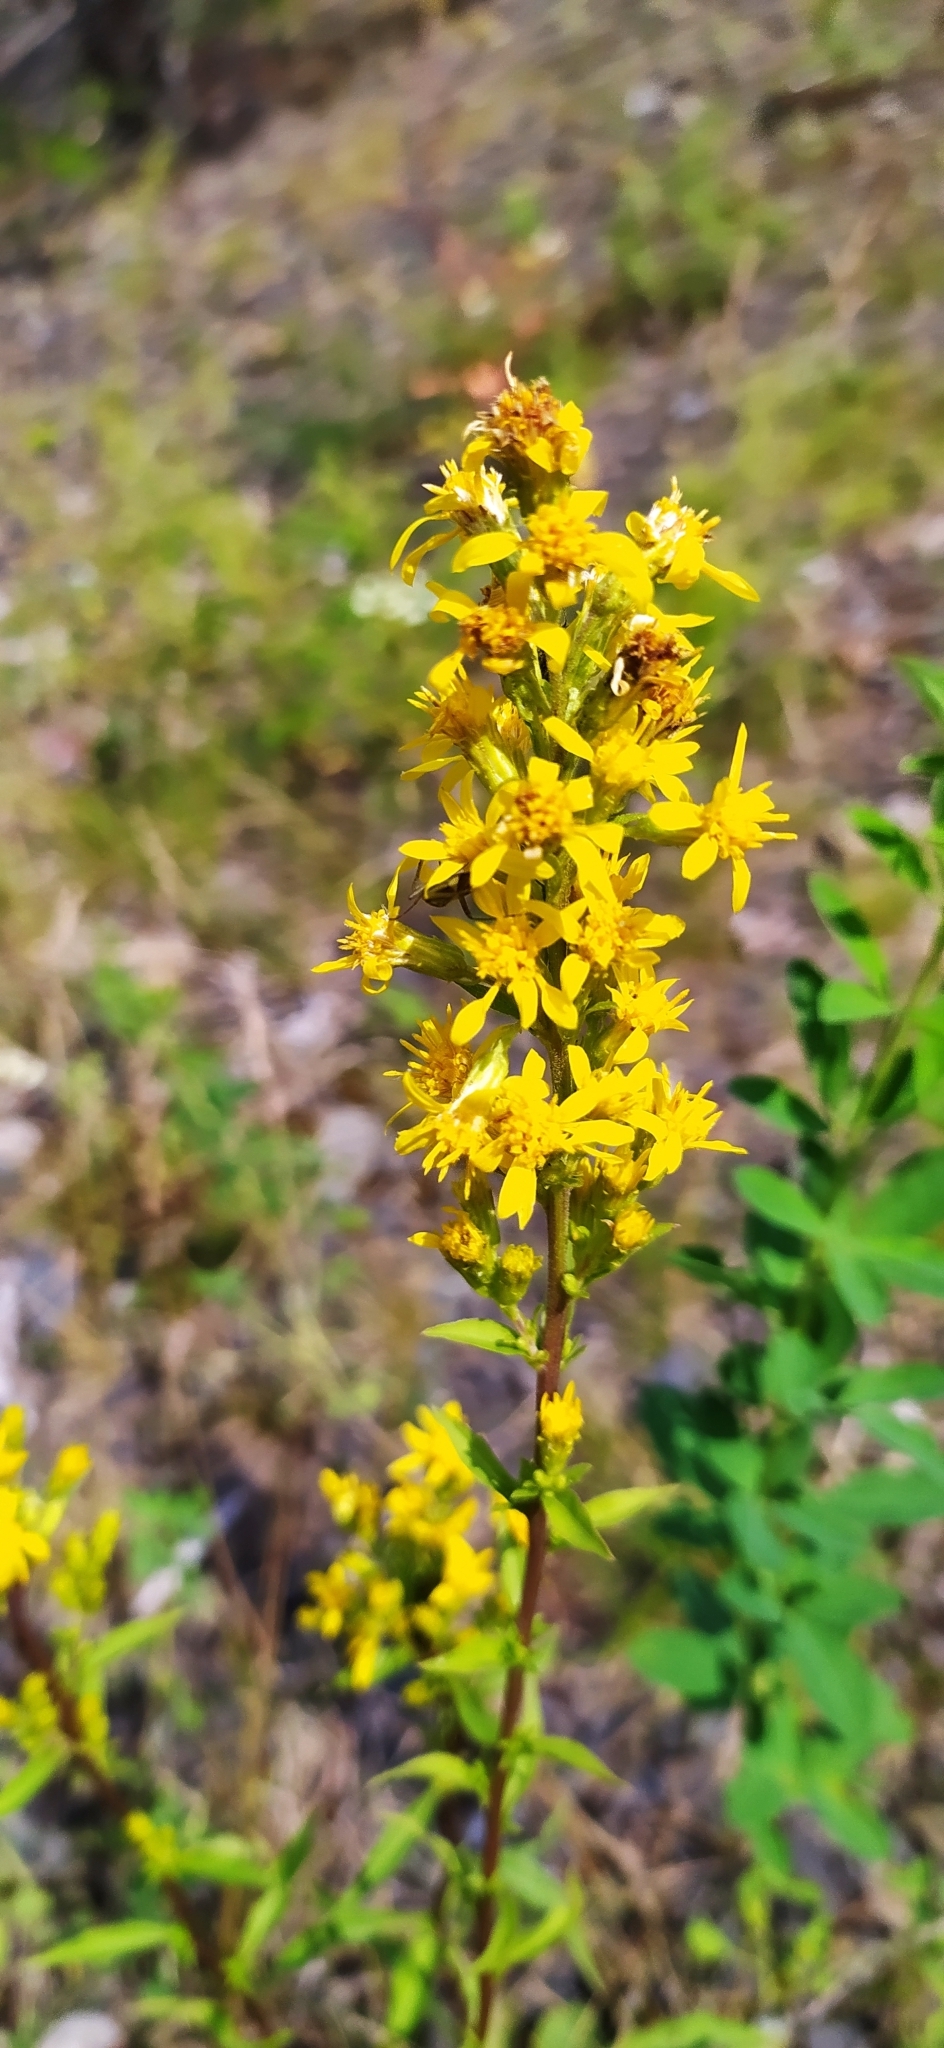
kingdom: Plantae
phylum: Tracheophyta
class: Magnoliopsida
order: Asterales
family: Asteraceae
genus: Solidago
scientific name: Solidago virgaurea
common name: Goldenrod
